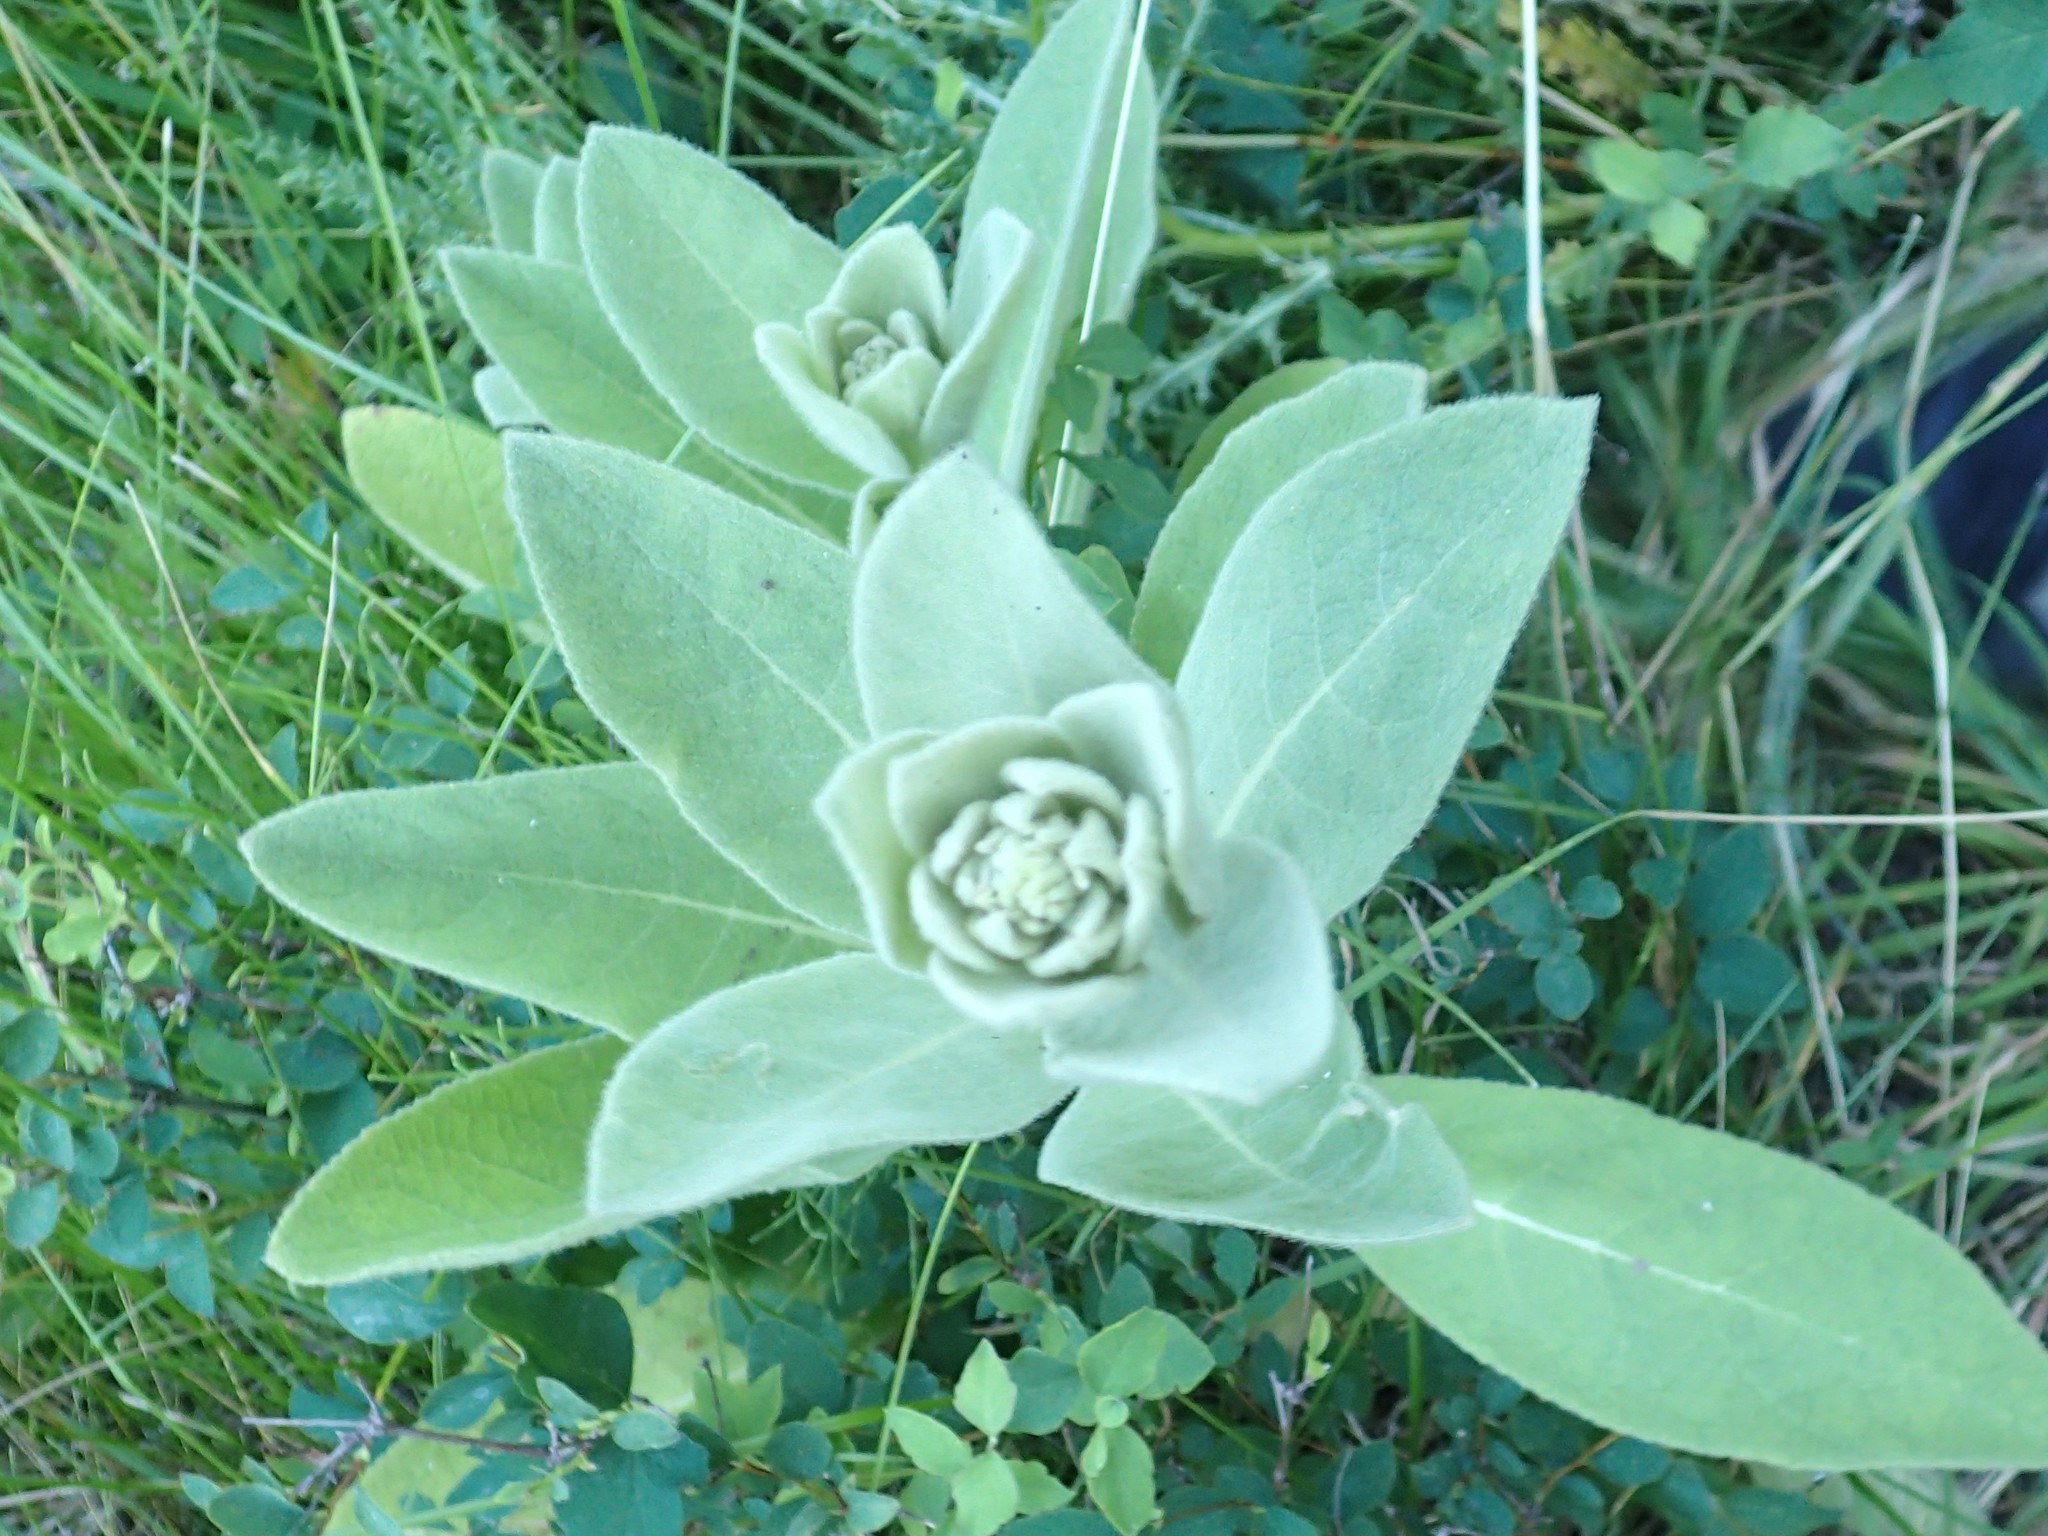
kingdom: Plantae
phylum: Tracheophyta
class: Magnoliopsida
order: Lamiales
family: Scrophulariaceae
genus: Verbascum
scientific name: Verbascum thapsus
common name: Common mullein
